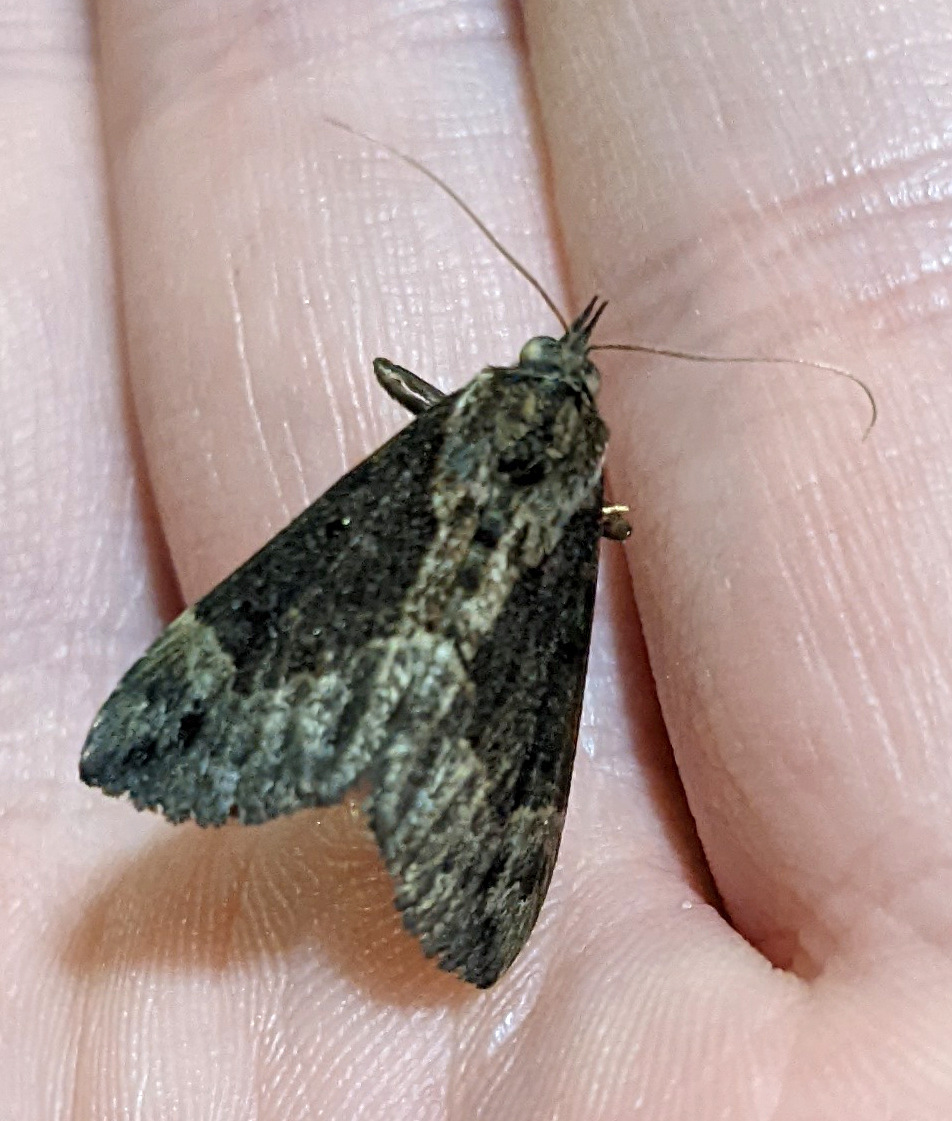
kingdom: Animalia
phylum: Arthropoda
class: Insecta
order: Lepidoptera
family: Erebidae
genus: Hypena
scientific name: Hypena baltimoralis
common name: Baltimore snout
